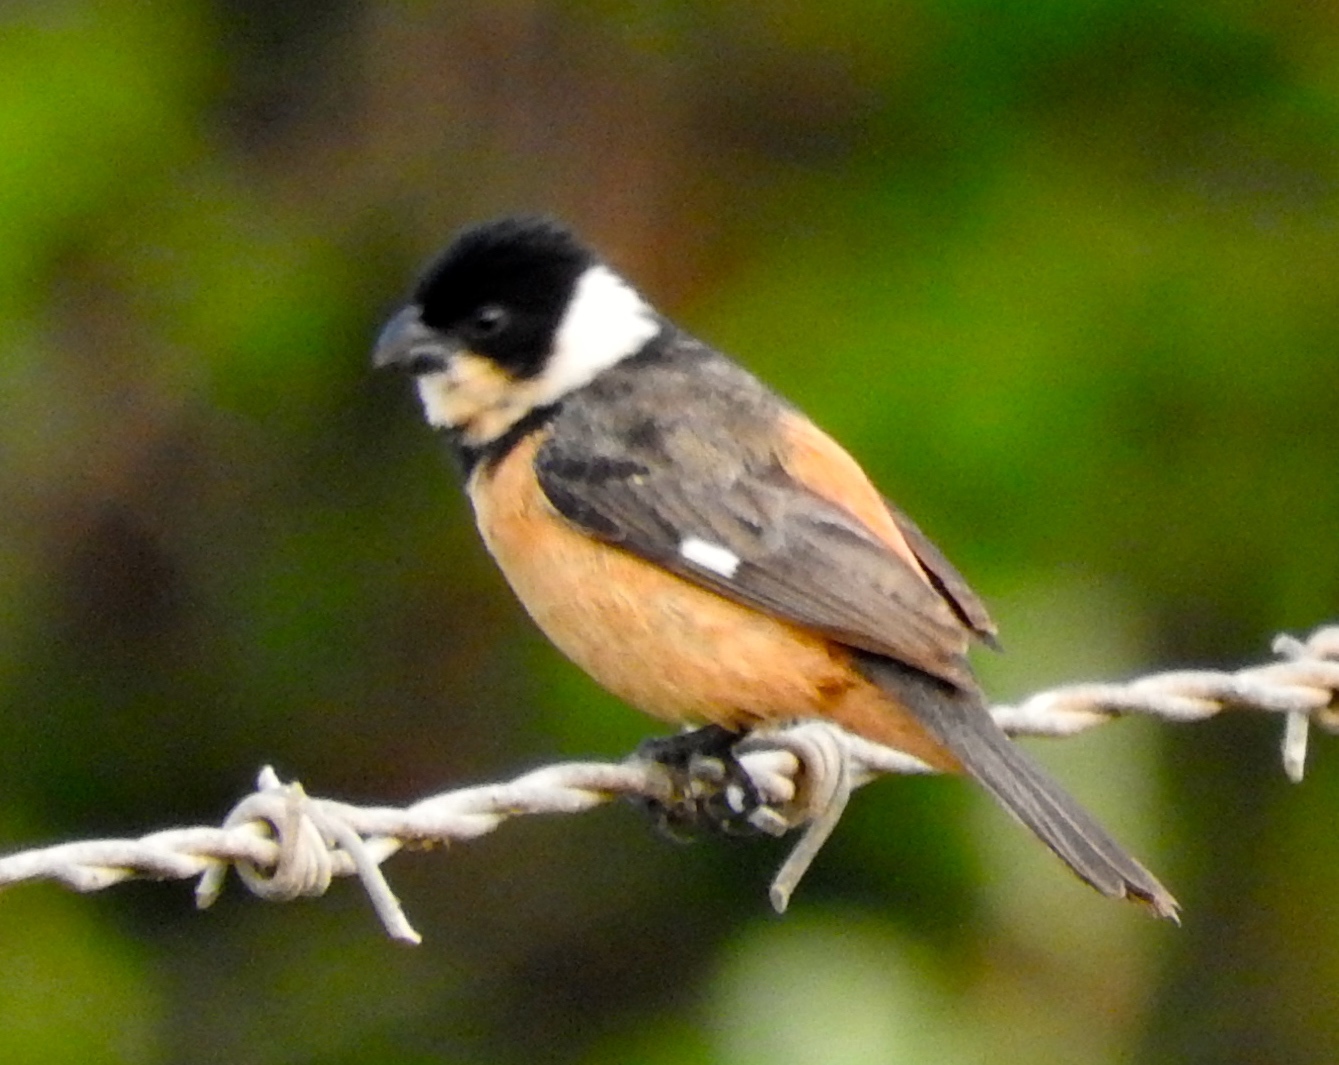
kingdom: Animalia
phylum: Chordata
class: Aves
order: Passeriformes
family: Thraupidae
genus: Sporophila
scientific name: Sporophila torqueola
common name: White-collared seedeater
